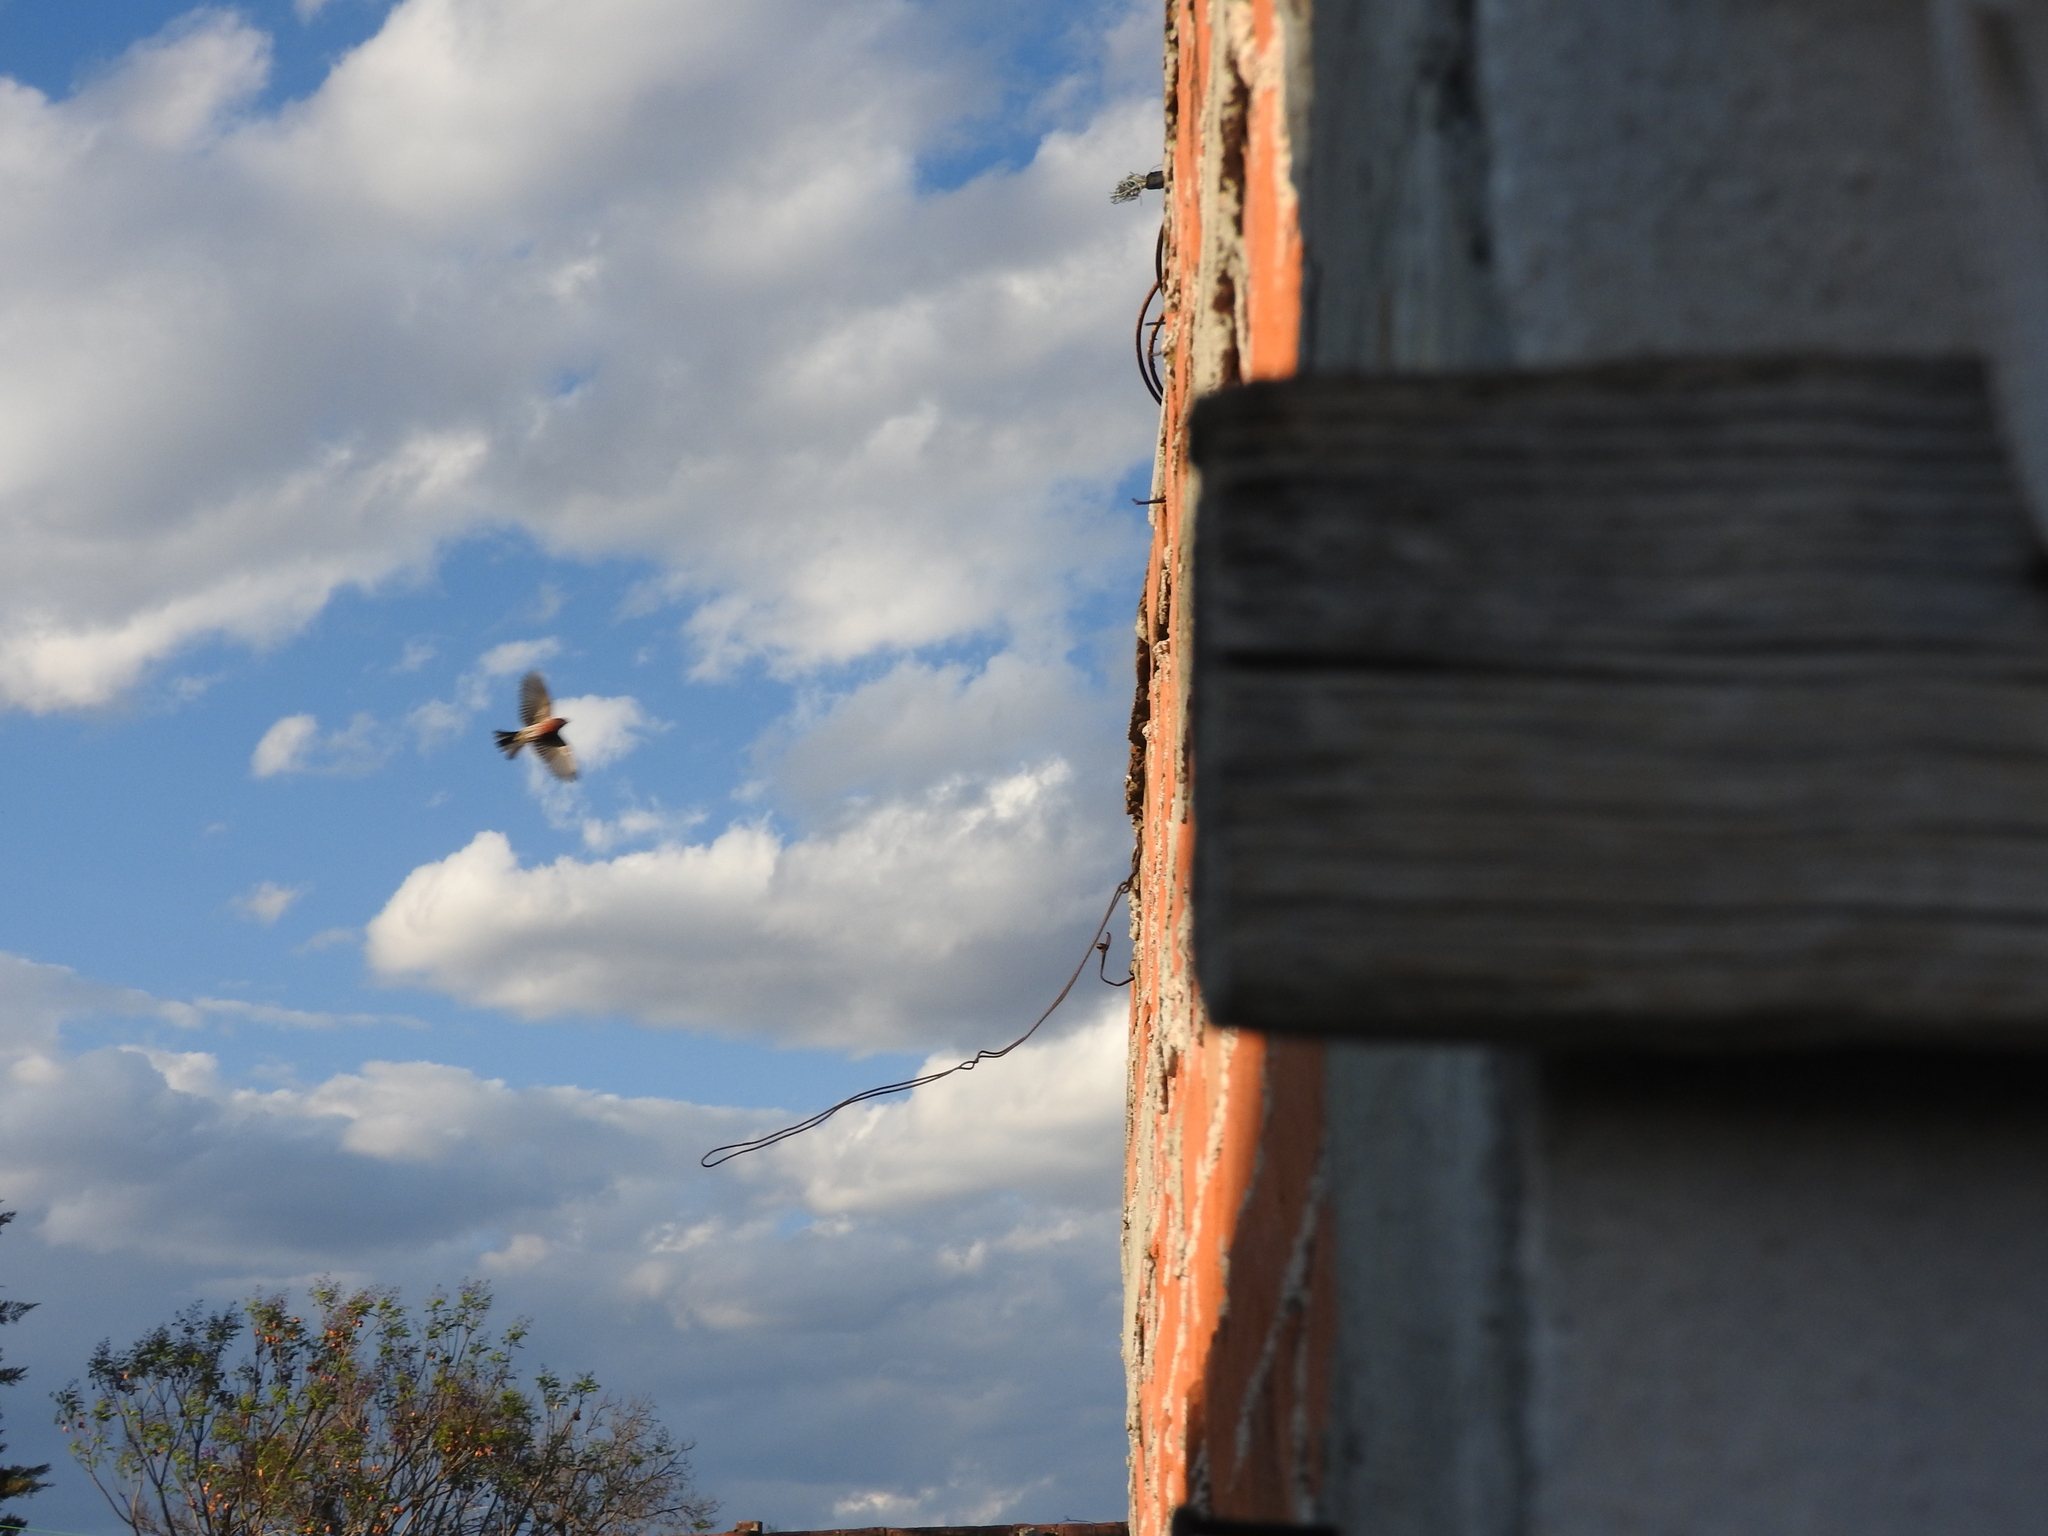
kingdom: Animalia
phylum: Chordata
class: Aves
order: Passeriformes
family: Fringillidae
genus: Haemorhous
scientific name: Haemorhous mexicanus
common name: House finch
